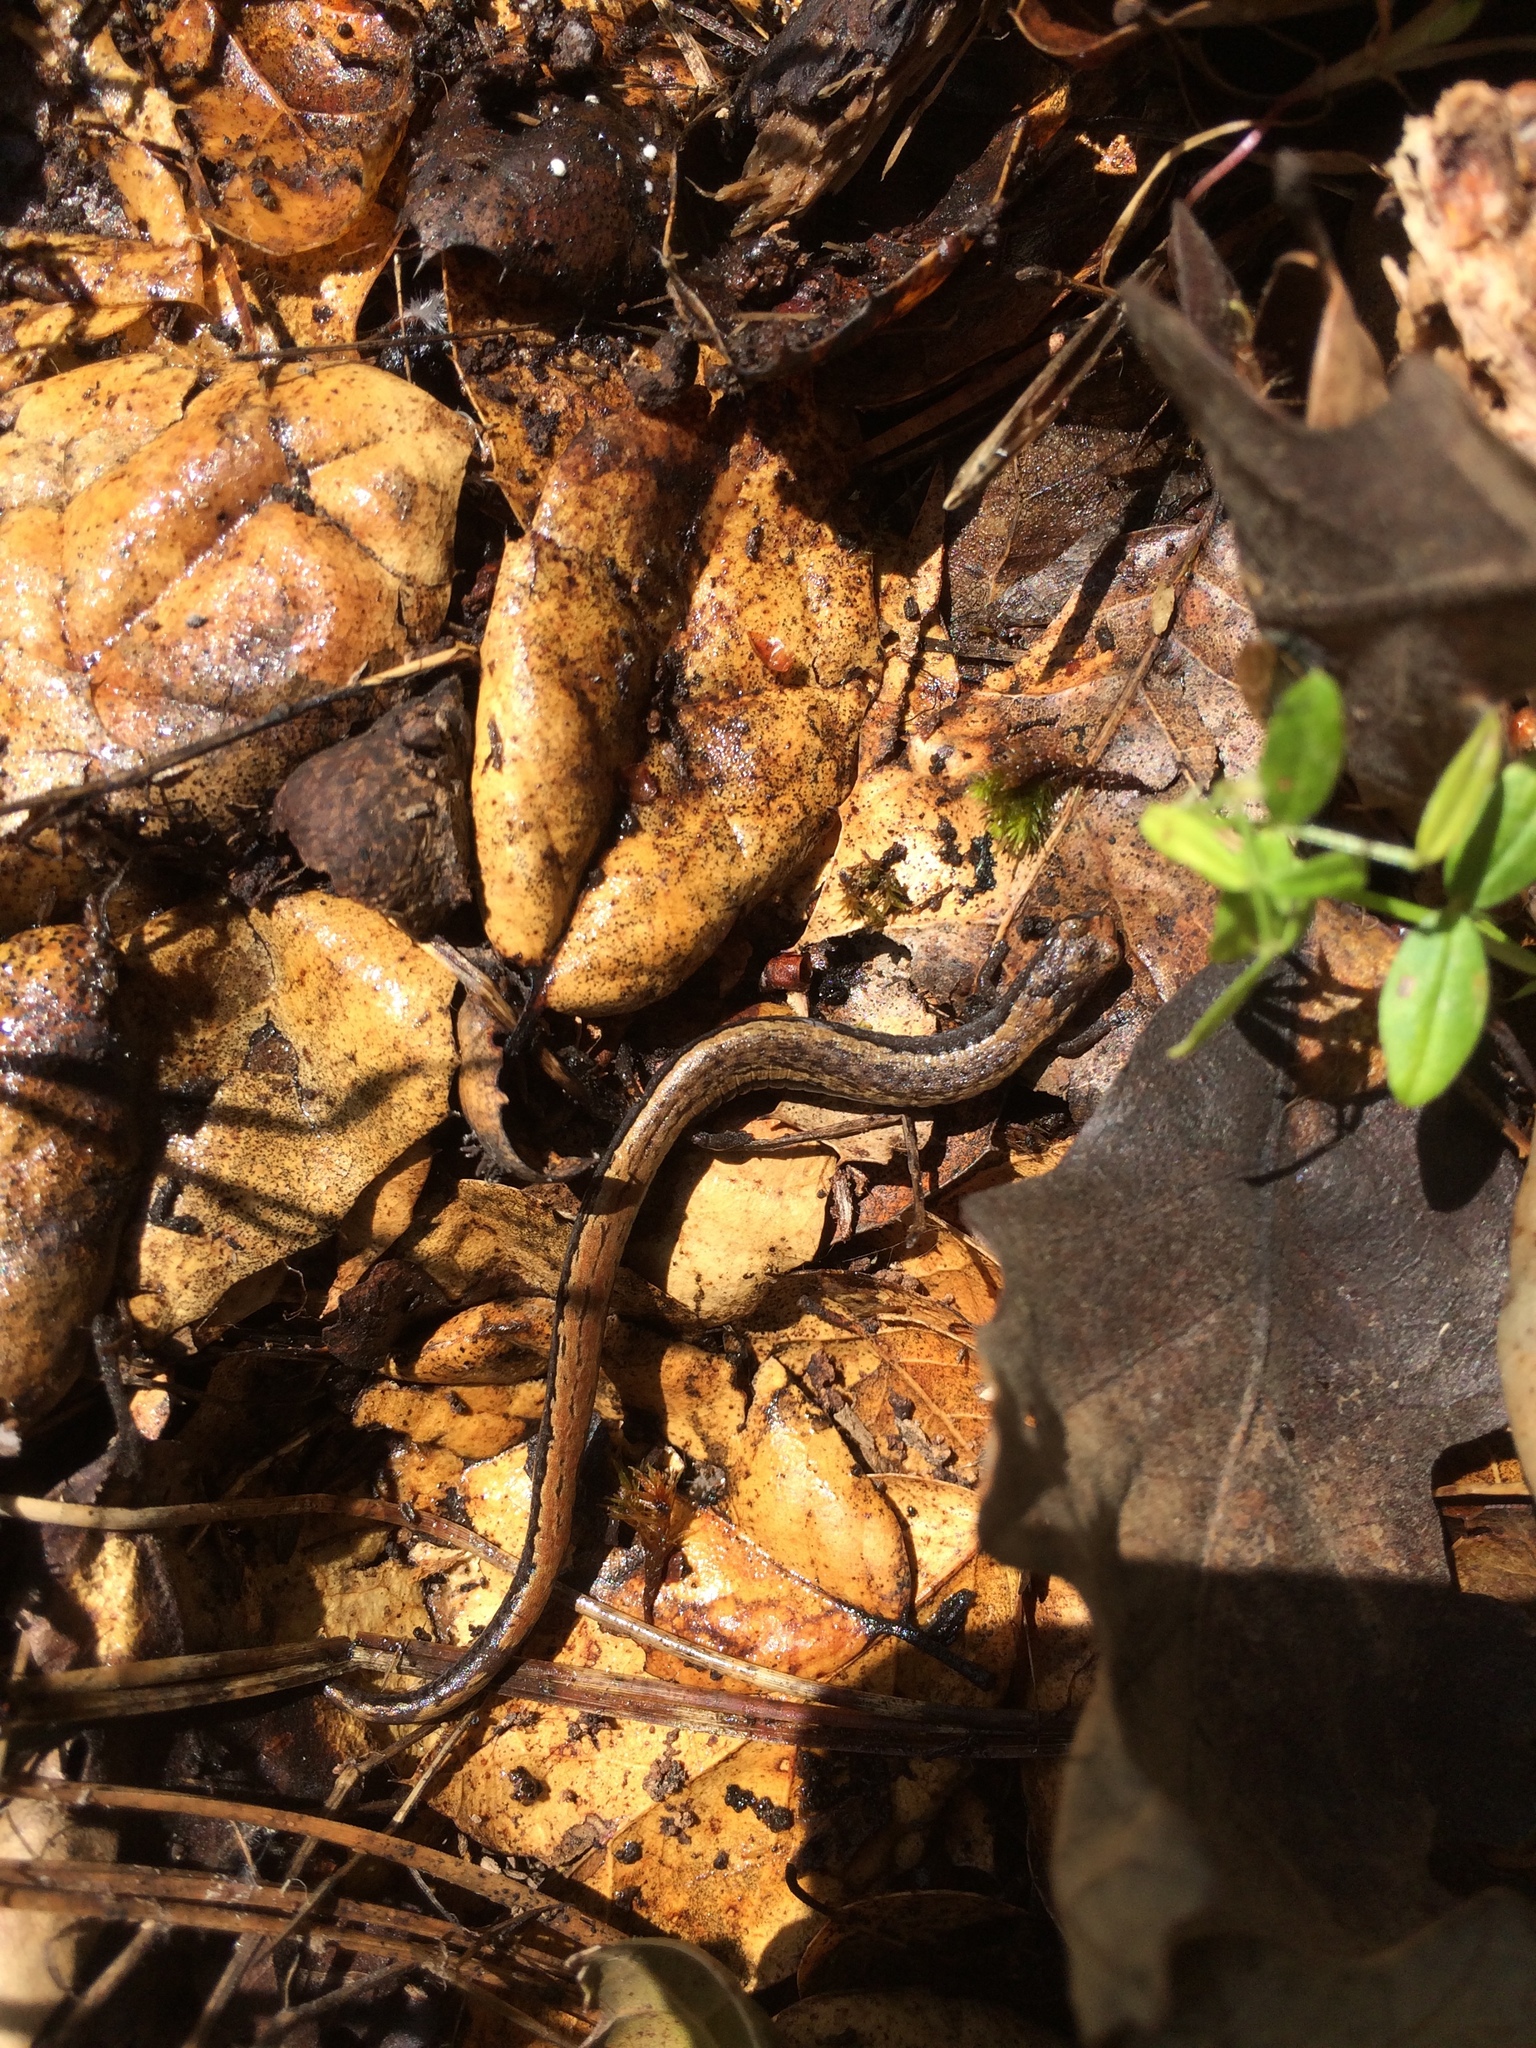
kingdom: Animalia
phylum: Chordata
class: Amphibia
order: Caudata
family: Plethodontidae
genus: Batrachoseps
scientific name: Batrachoseps attenuatus
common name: California slender salamander
